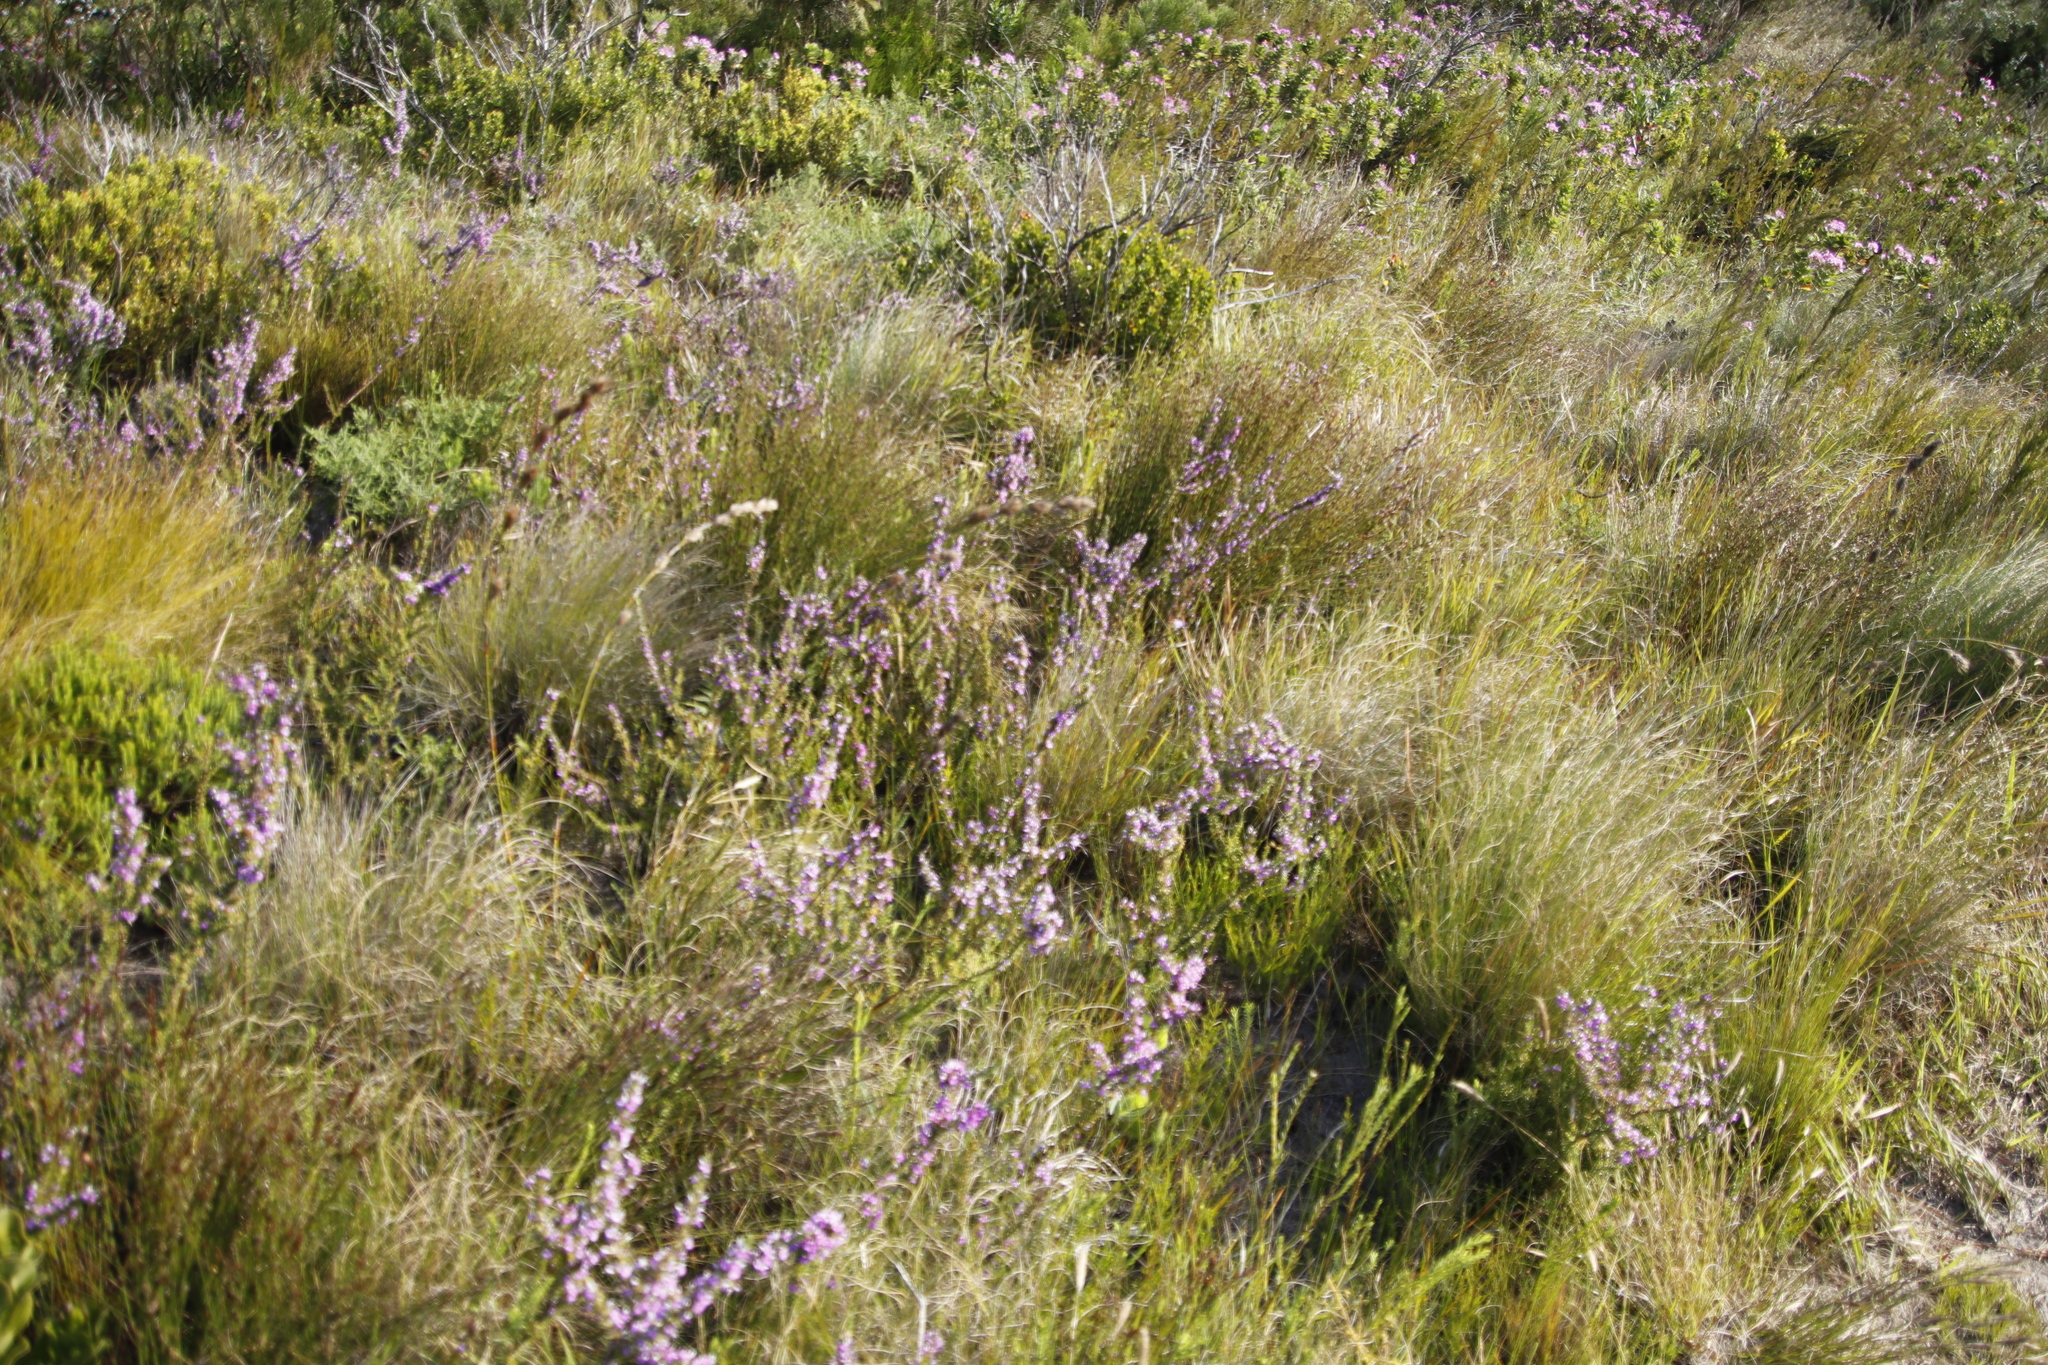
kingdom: Plantae
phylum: Tracheophyta
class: Magnoliopsida
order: Fabales
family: Polygalaceae
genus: Muraltia
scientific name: Muraltia heisteria
